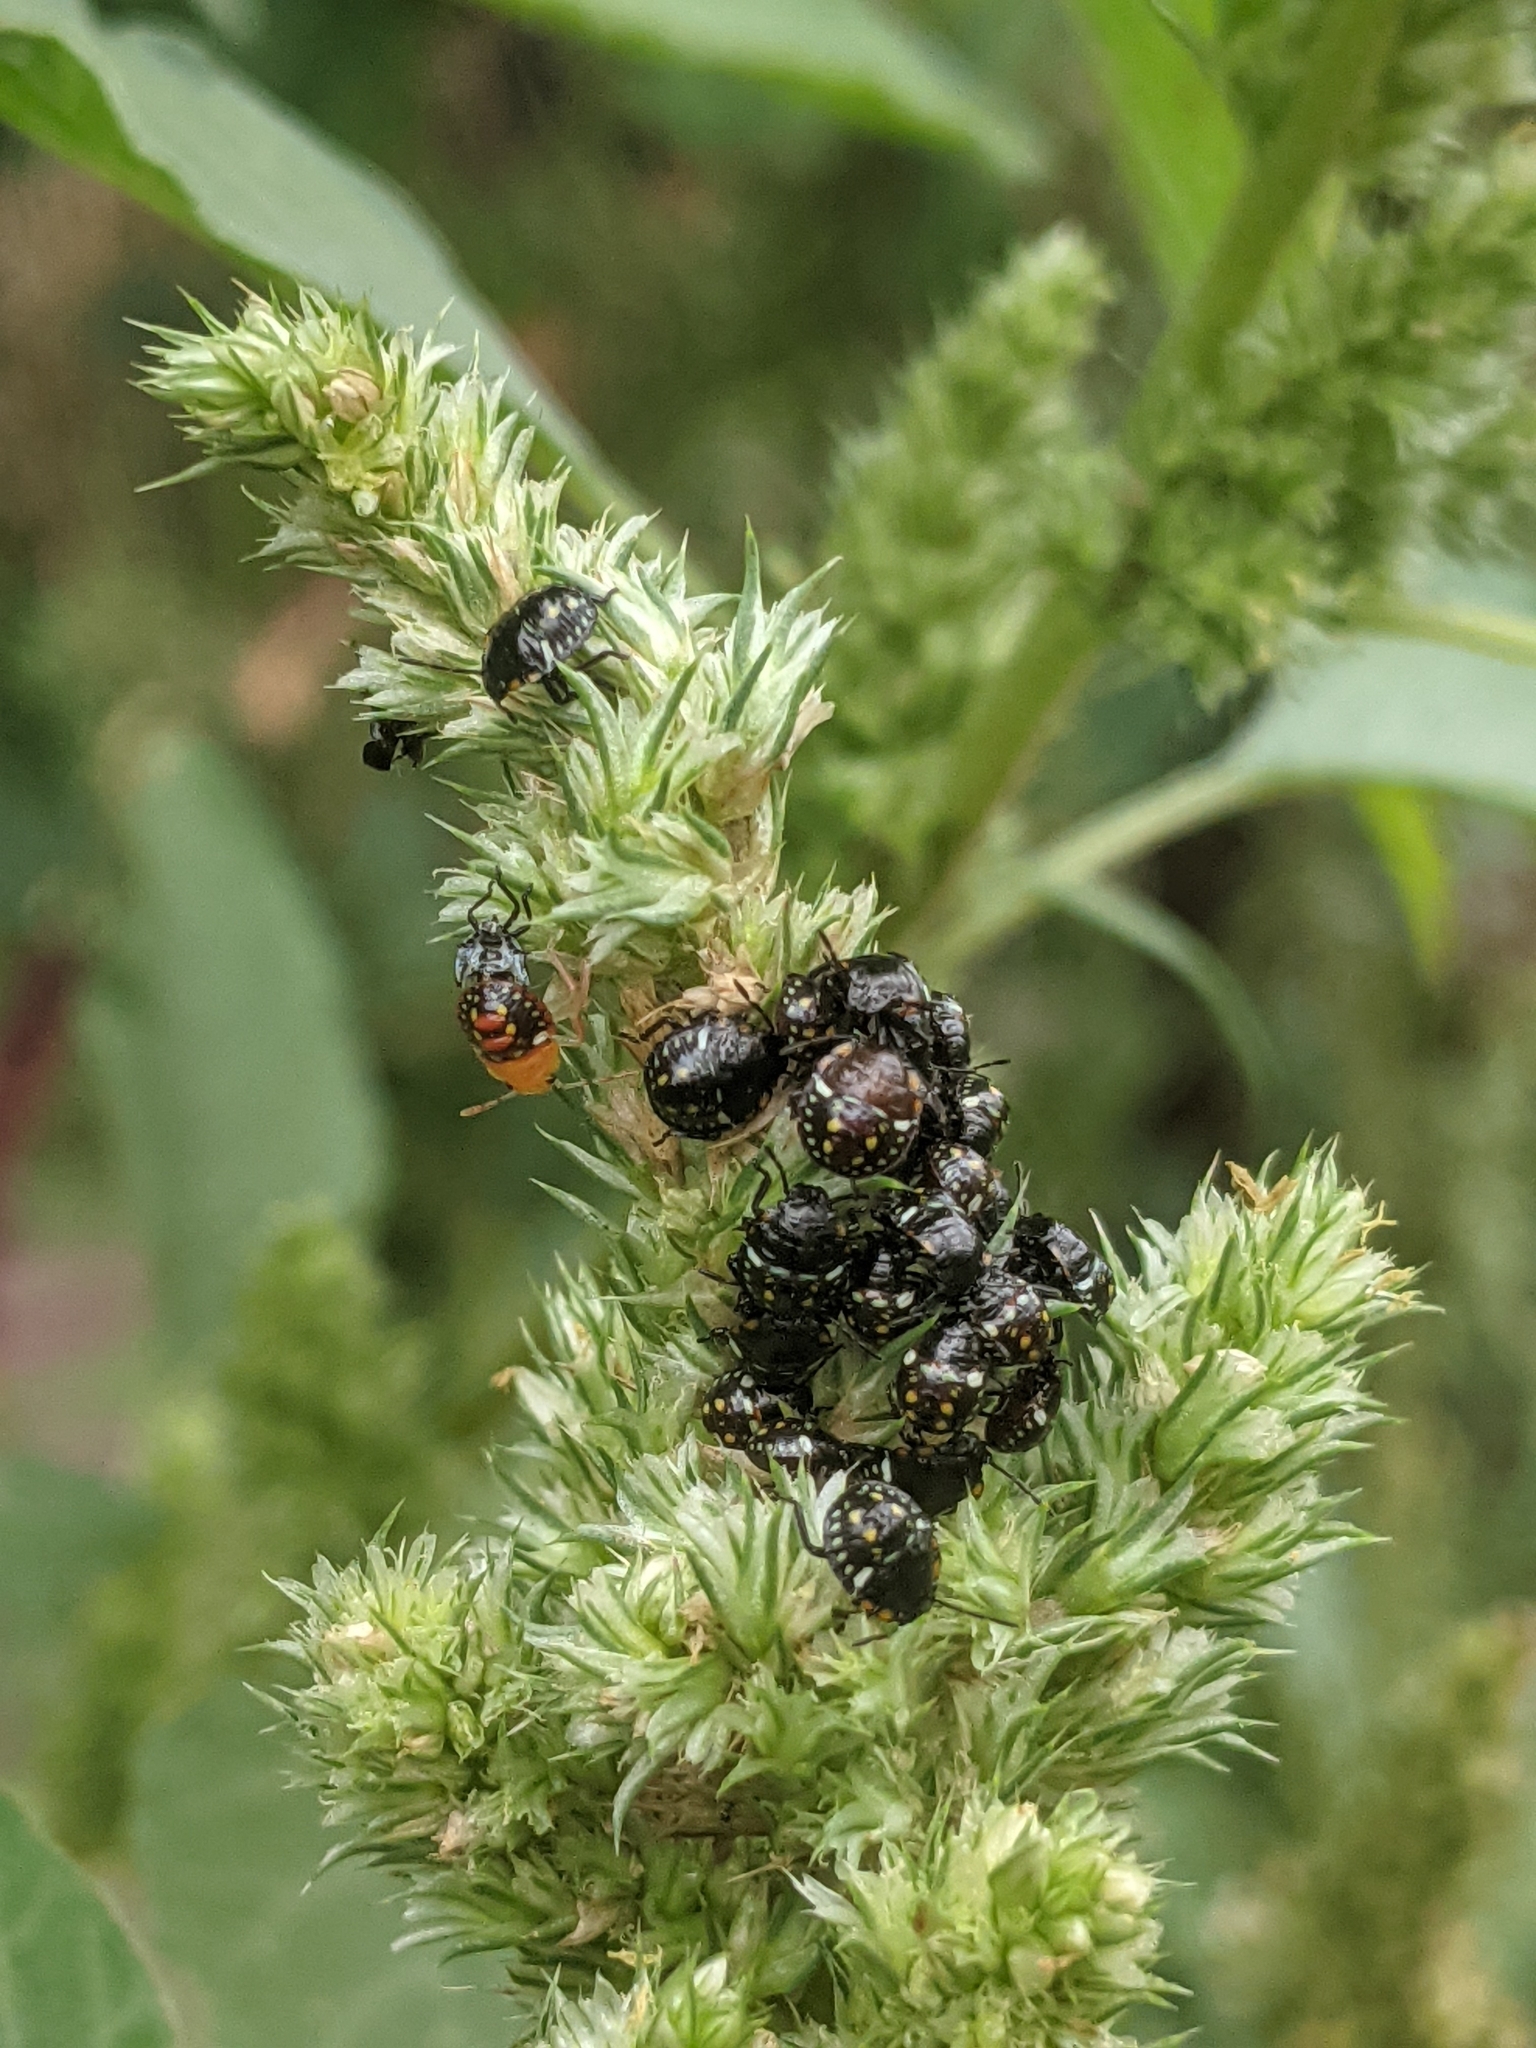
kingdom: Animalia
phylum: Arthropoda
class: Insecta
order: Hemiptera
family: Pentatomidae
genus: Nezara
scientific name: Nezara viridula
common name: Southern green stink bug
